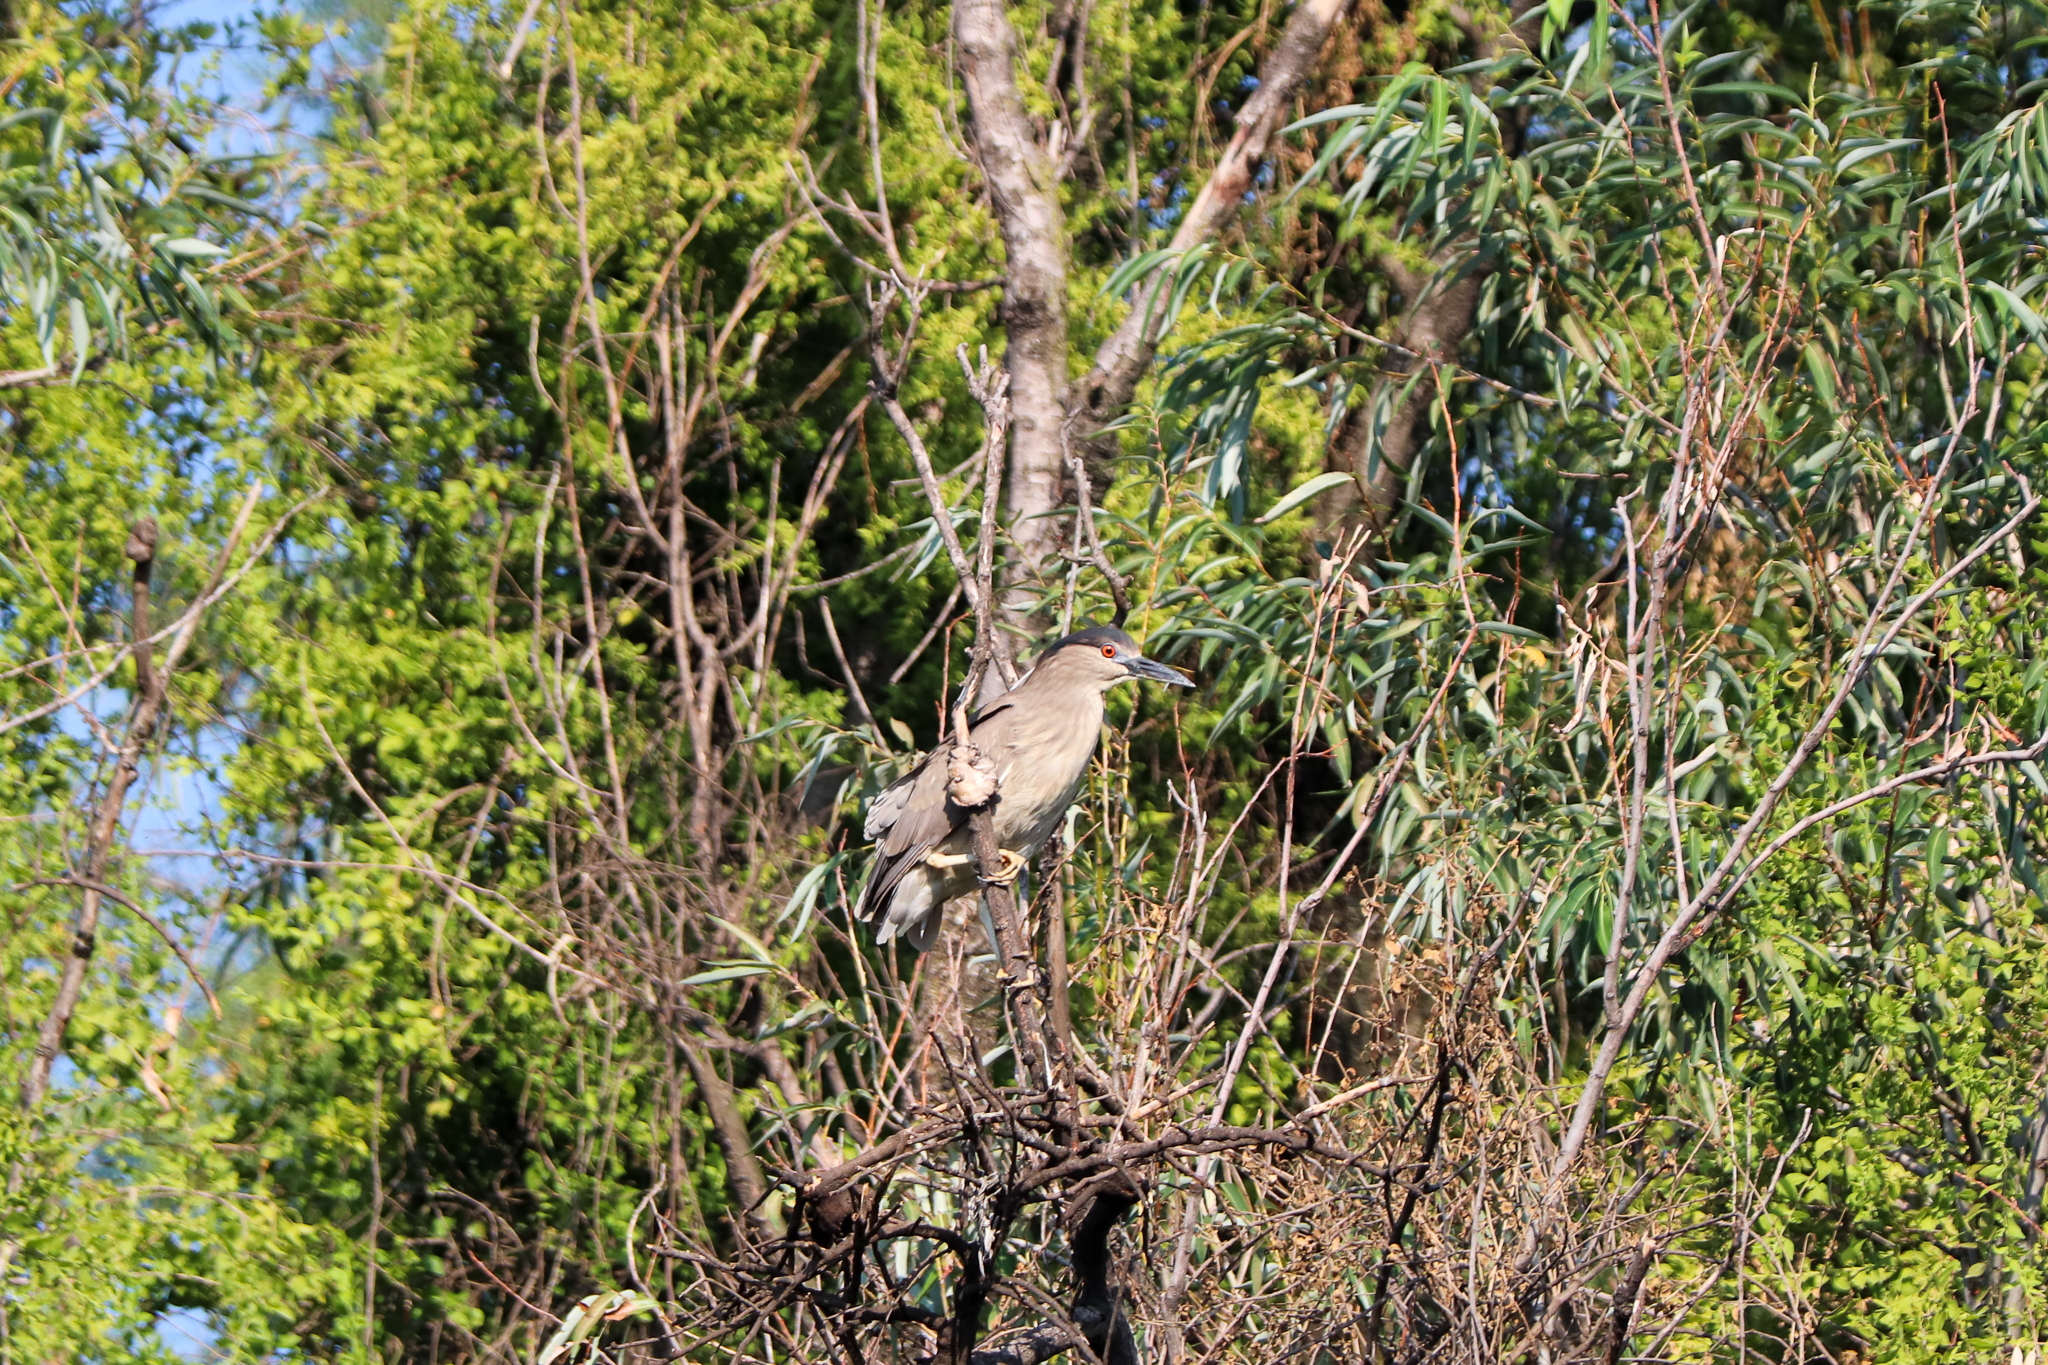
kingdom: Animalia
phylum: Chordata
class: Aves
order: Pelecaniformes
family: Ardeidae
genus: Nycticorax
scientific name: Nycticorax nycticorax
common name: Black-crowned night heron
